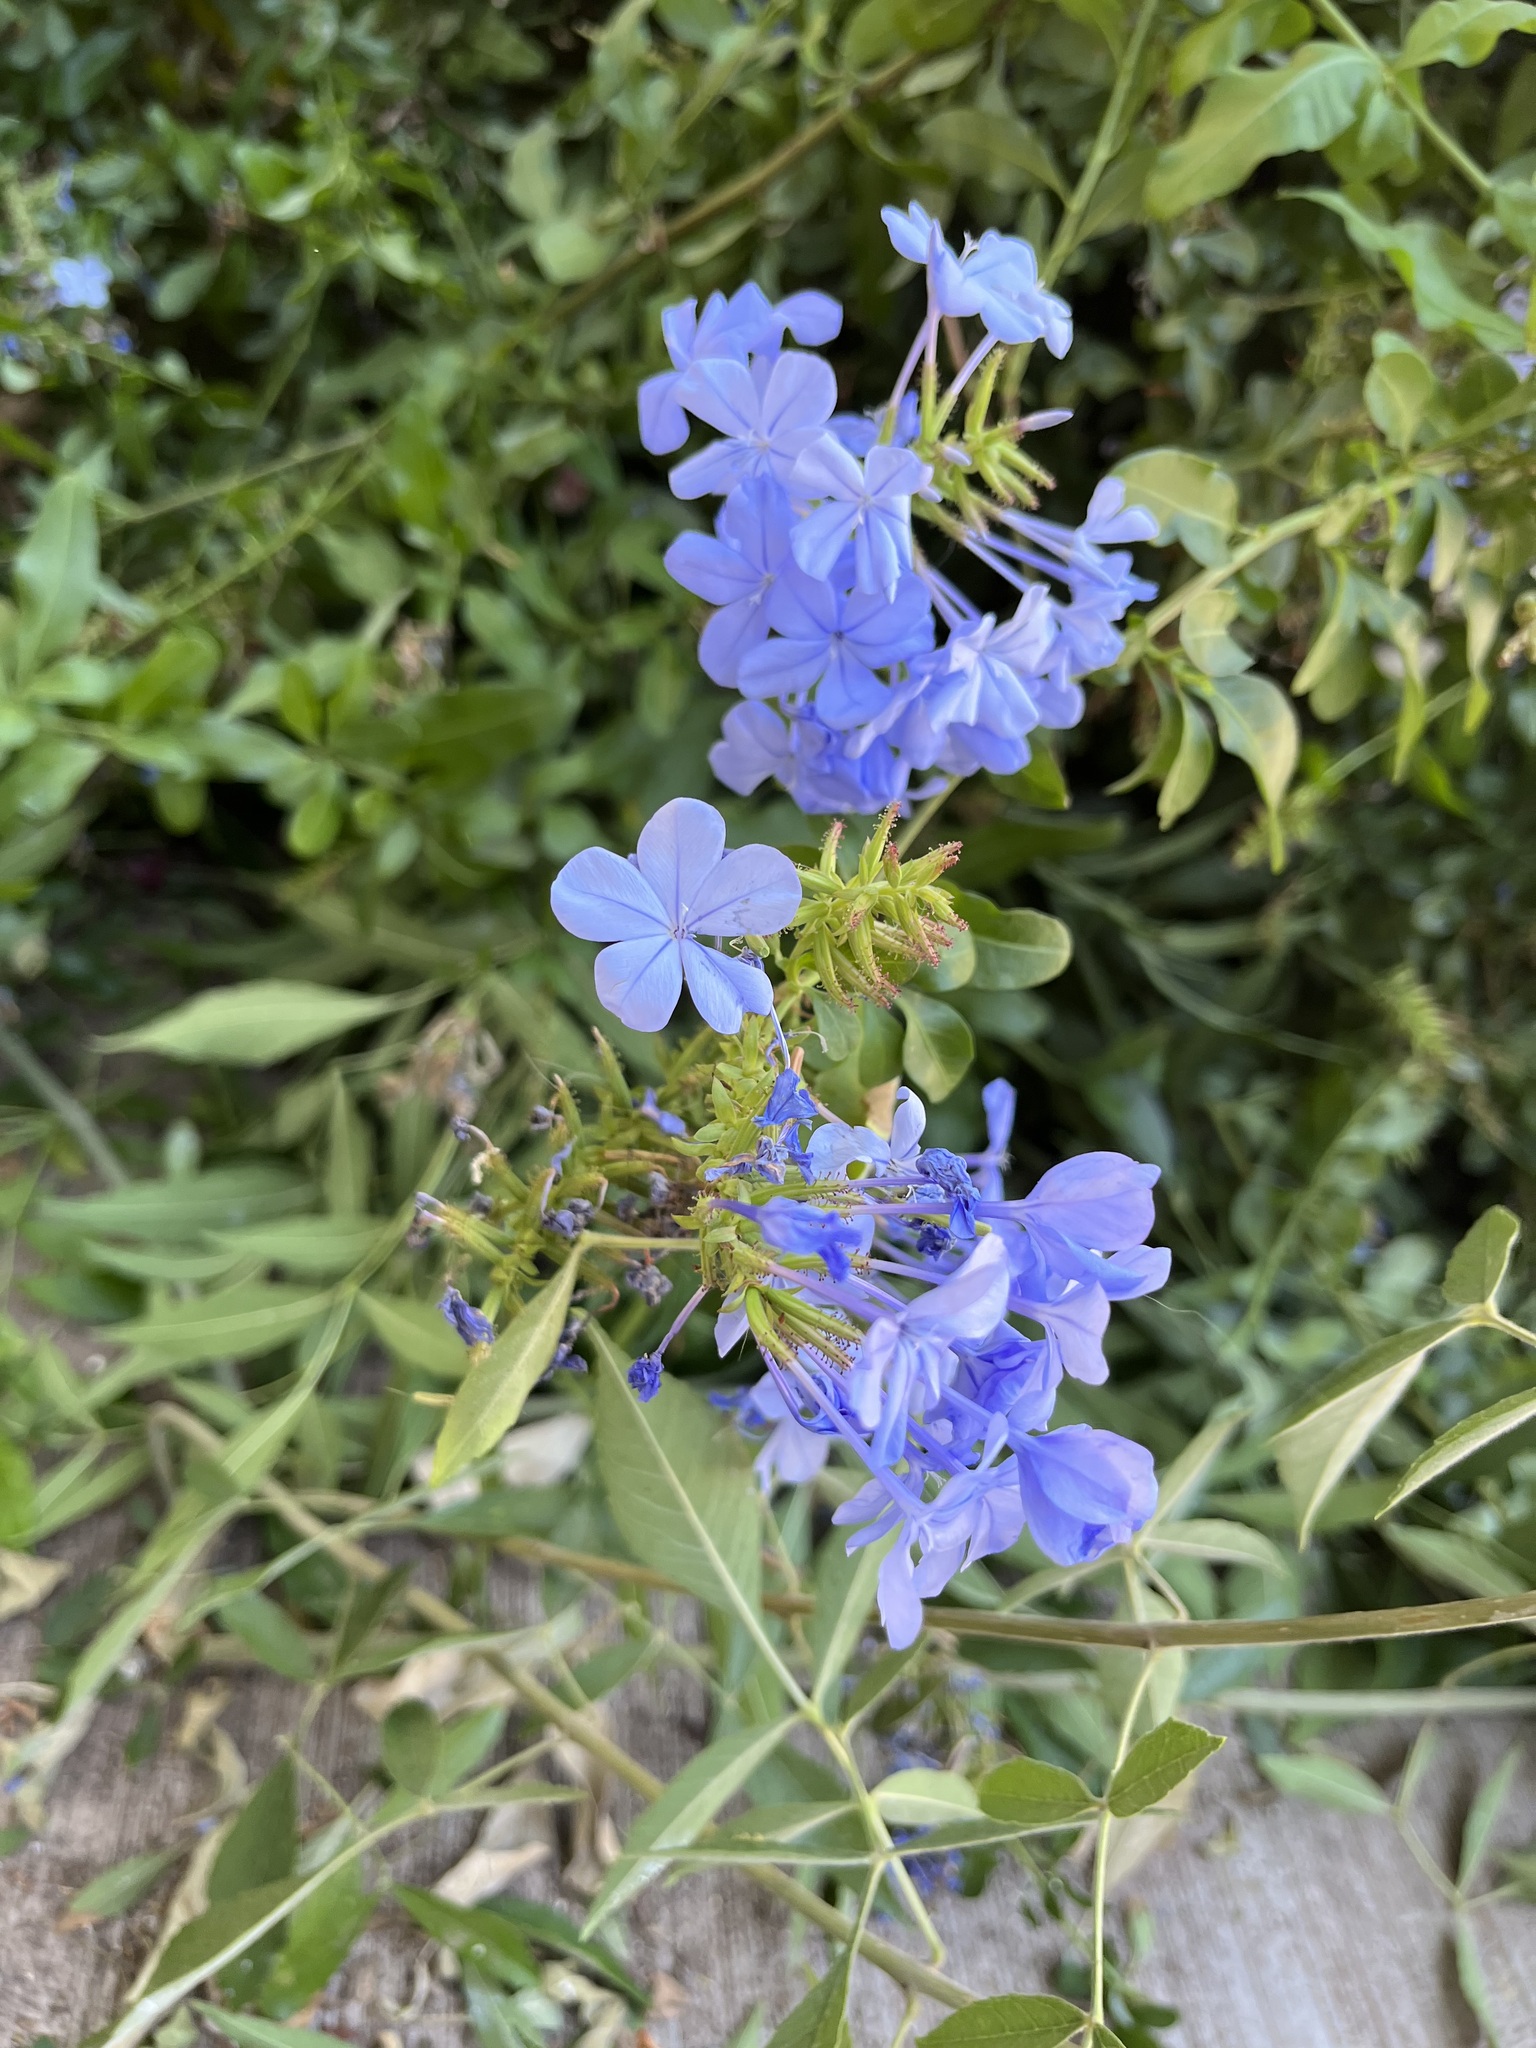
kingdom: Plantae
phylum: Tracheophyta
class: Magnoliopsida
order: Caryophyllales
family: Plumbaginaceae
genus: Plumbago
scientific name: Plumbago auriculata
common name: Cape leadwort
